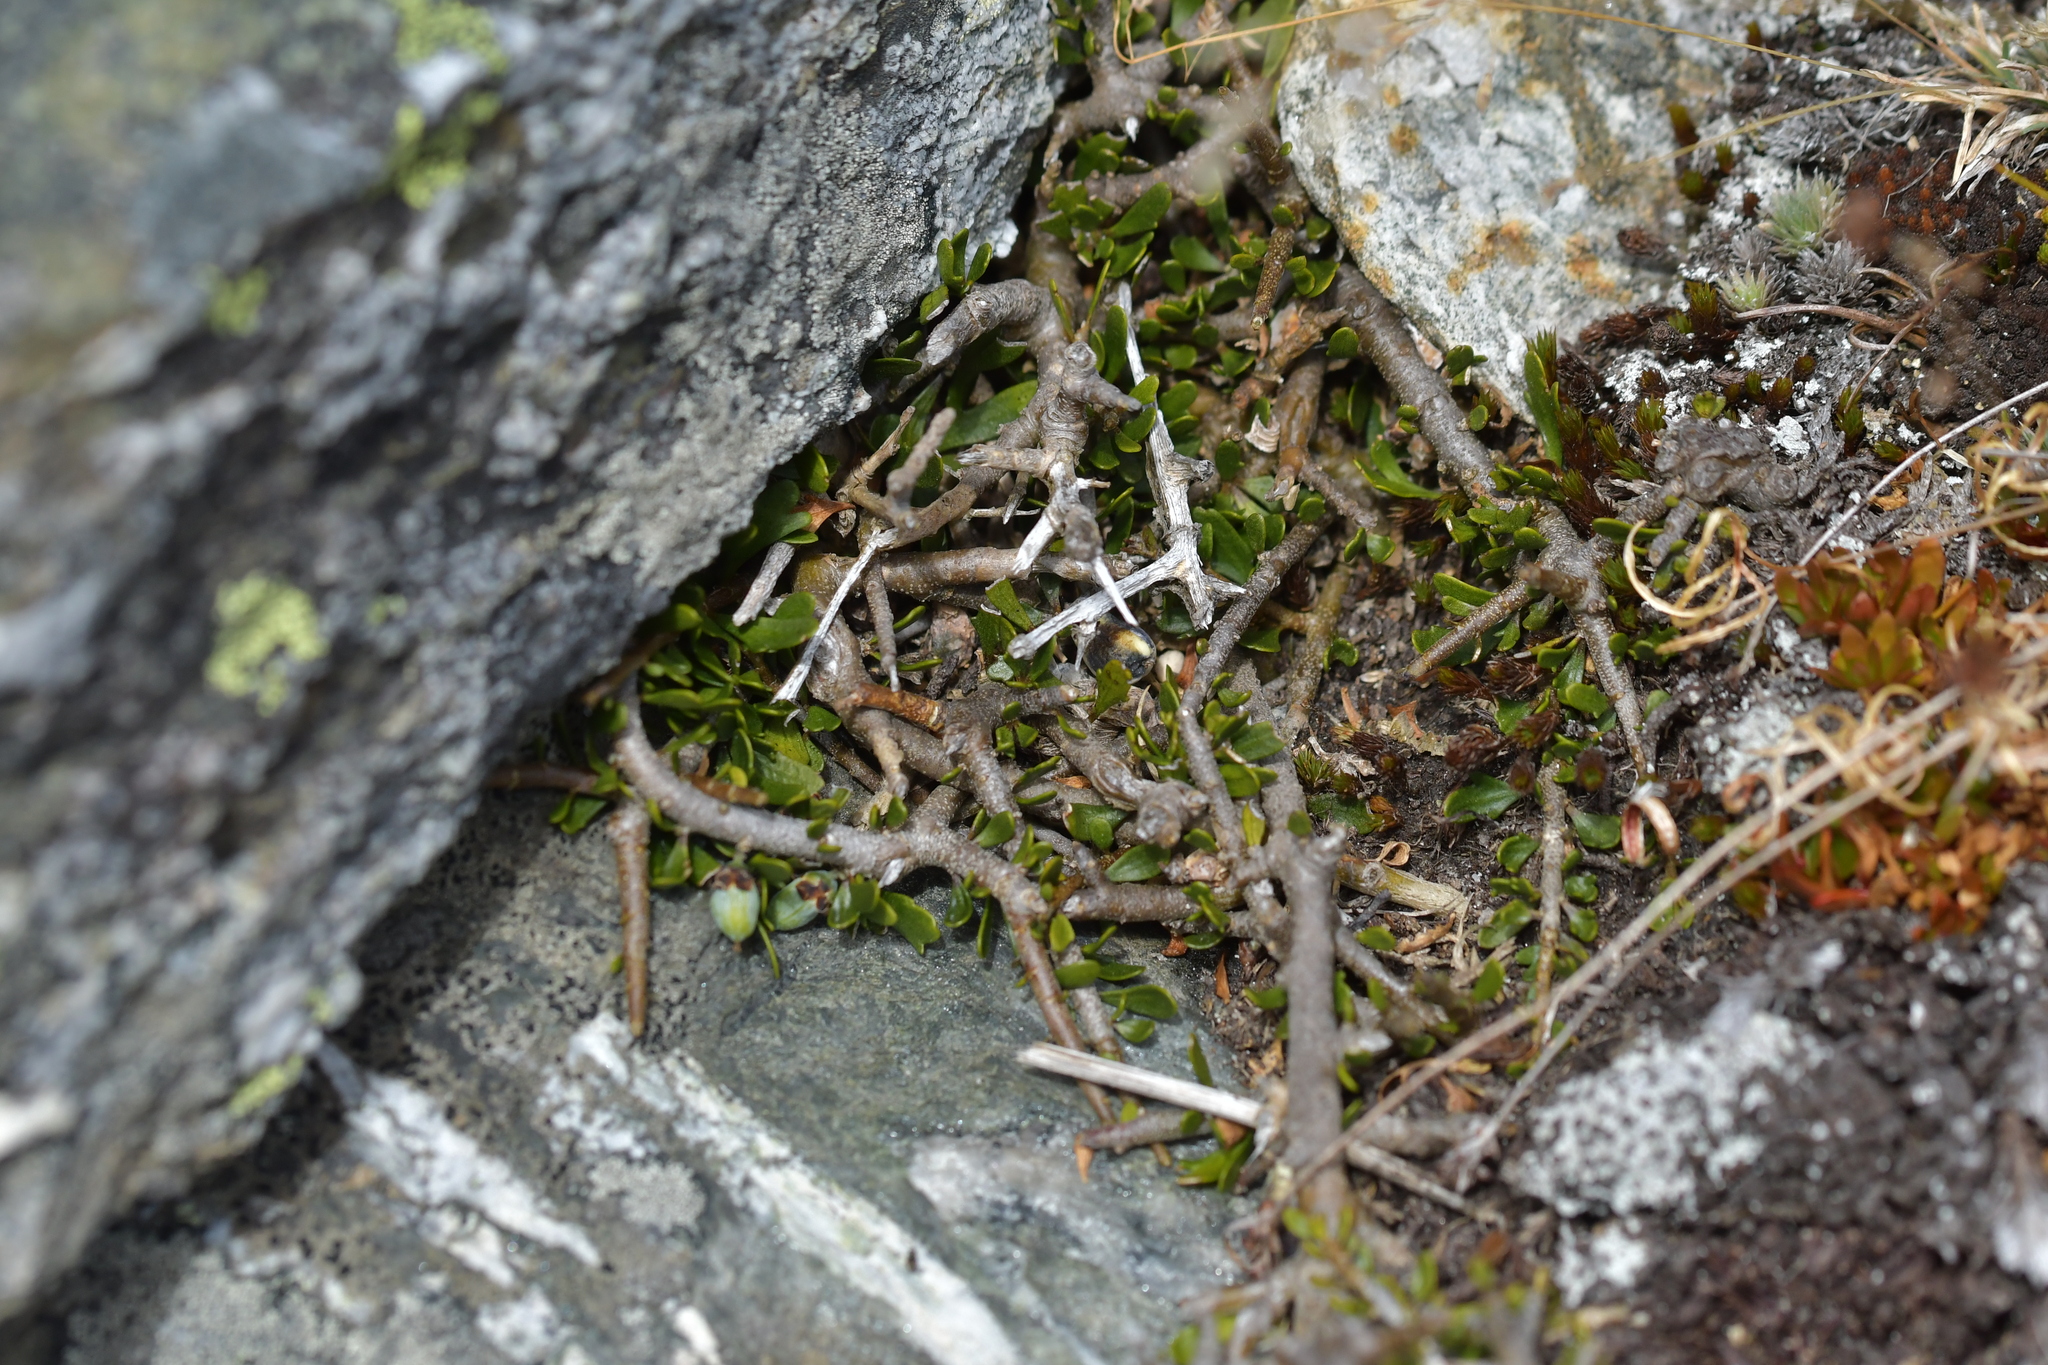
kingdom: Plantae
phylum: Tracheophyta
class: Magnoliopsida
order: Malpighiales
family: Violaceae
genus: Melicytus
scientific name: Melicytus alpinus
